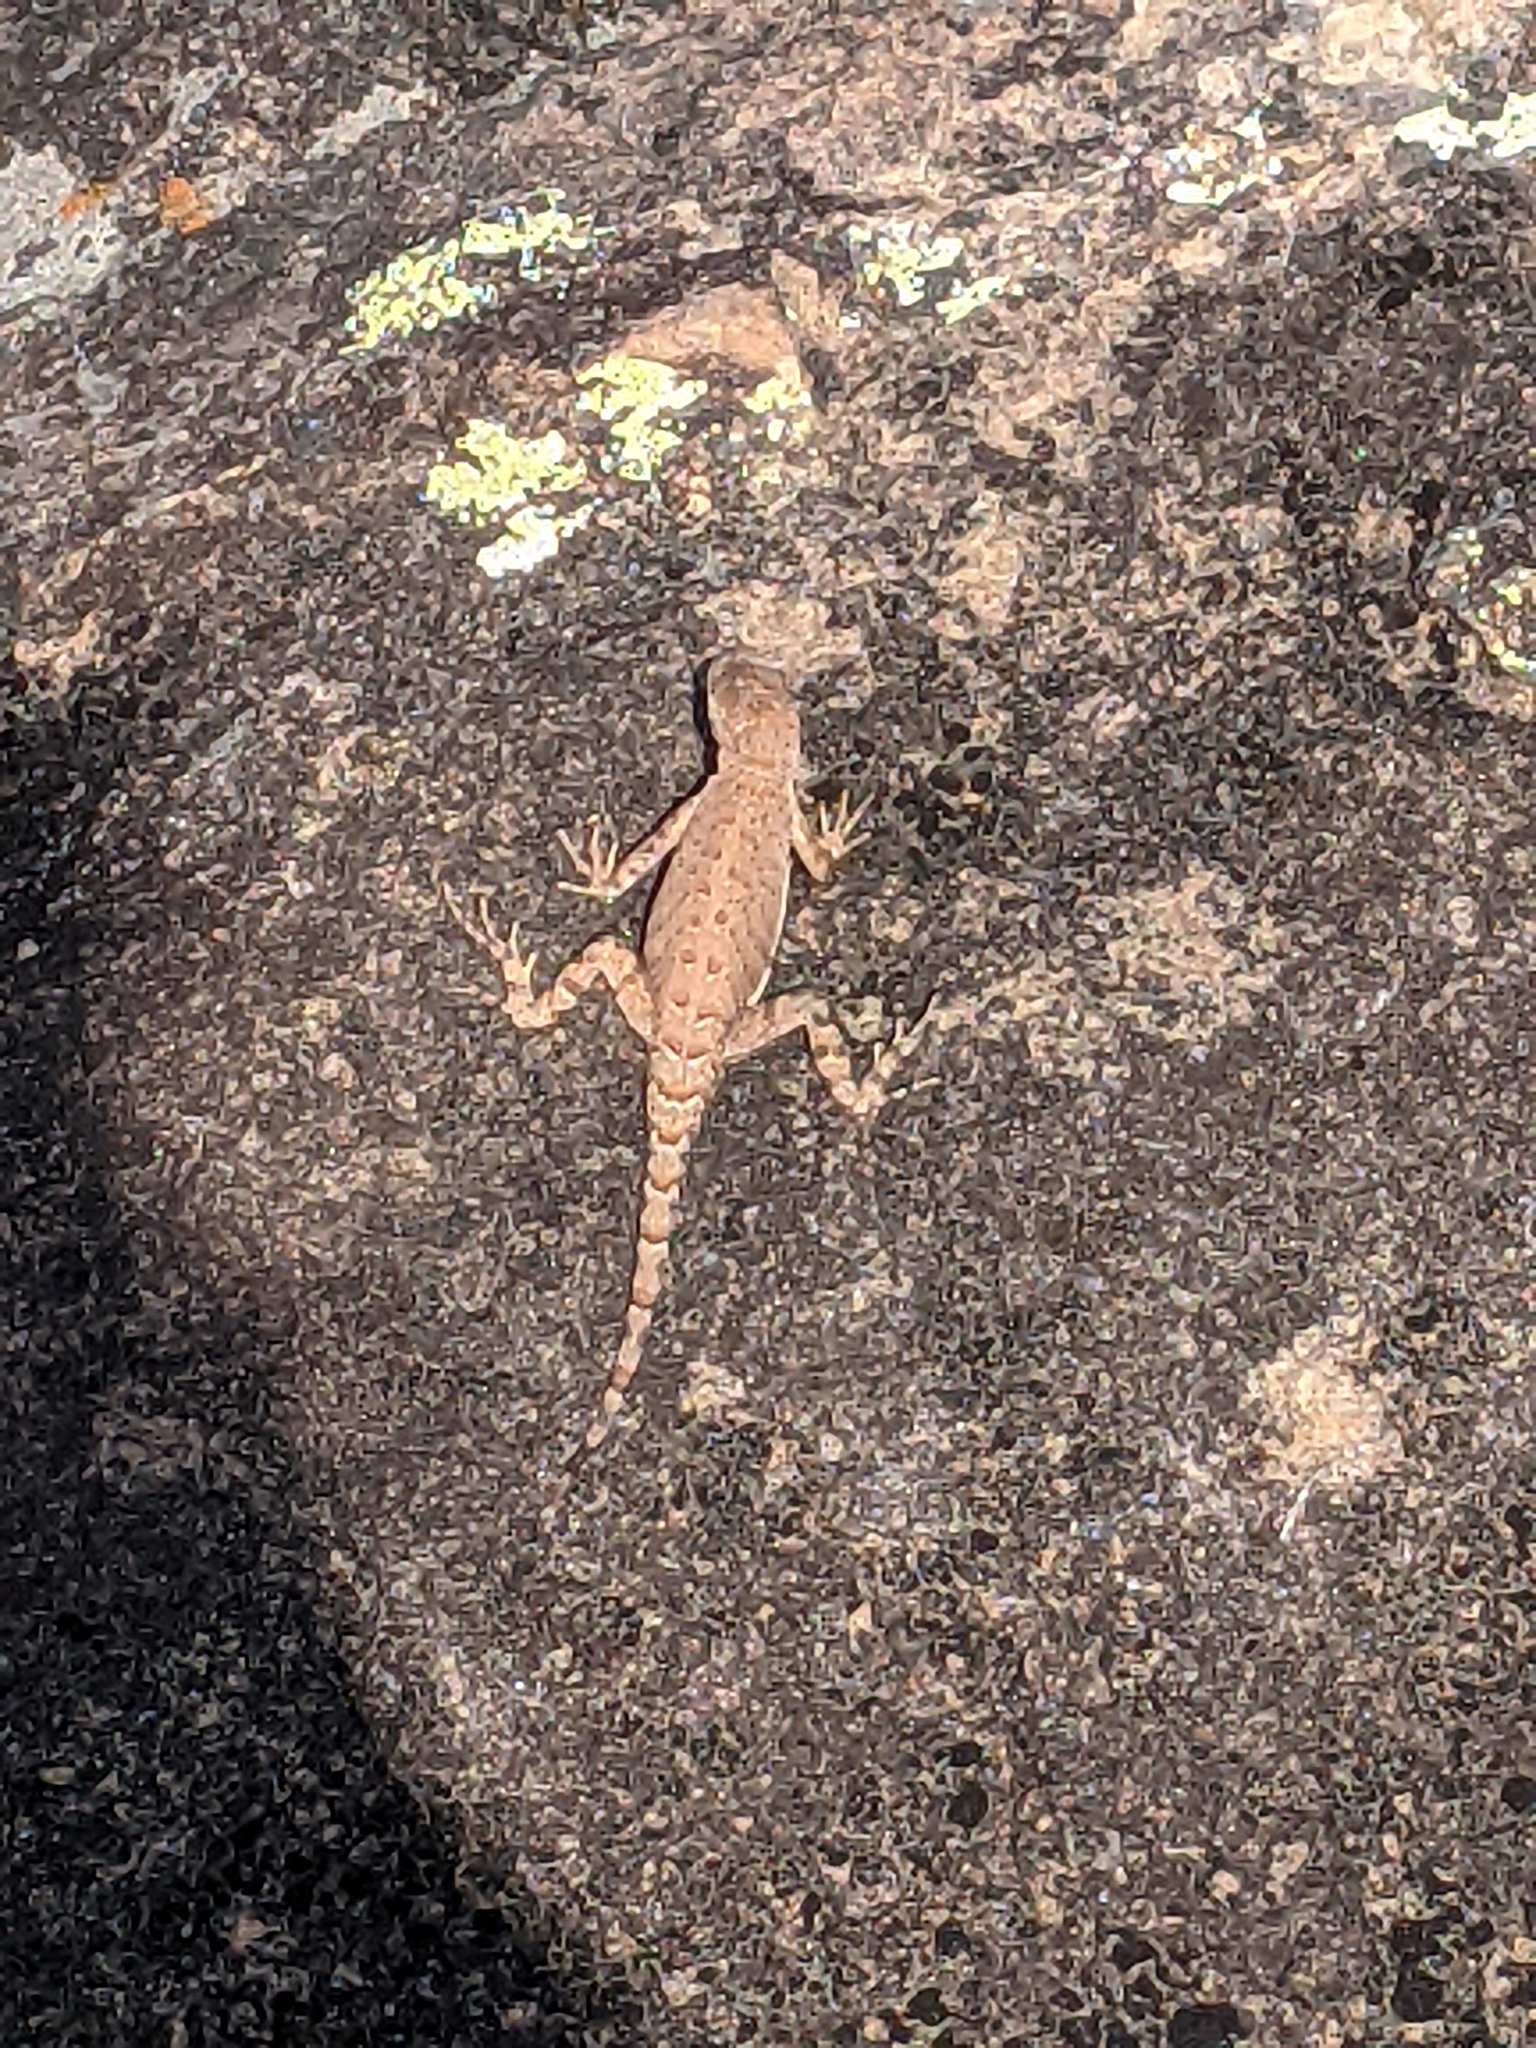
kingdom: Animalia
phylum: Chordata
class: Squamata
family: Phrynosomatidae
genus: Cophosaurus
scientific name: Cophosaurus texanus
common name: Greater earless lizard
